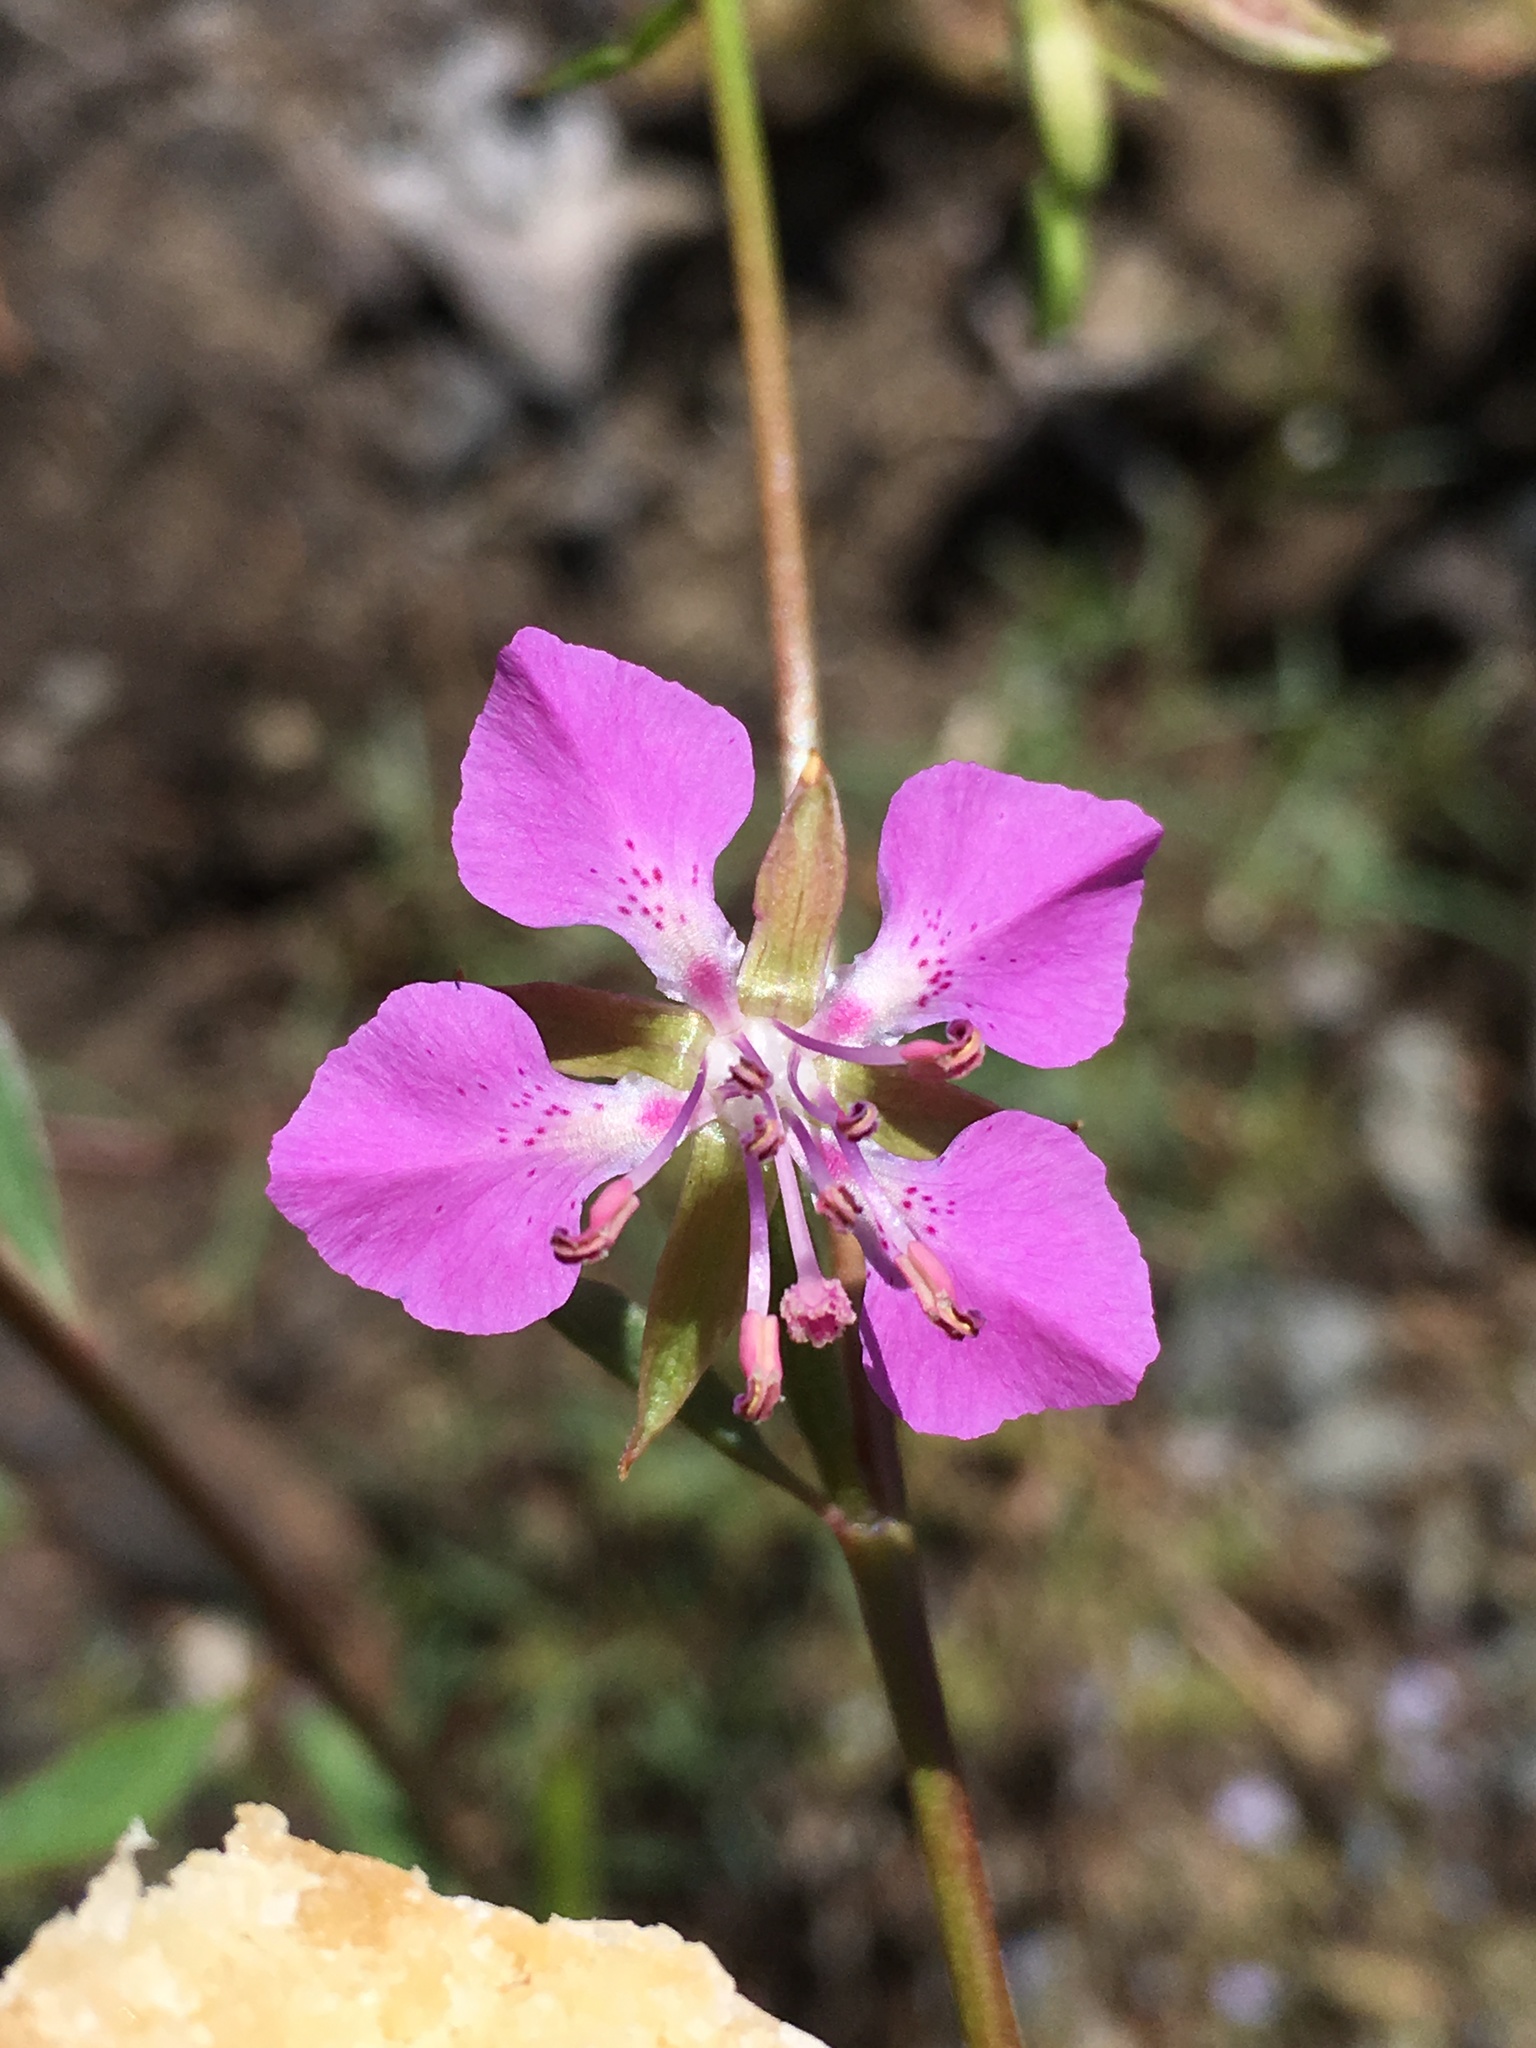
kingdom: Plantae
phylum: Tracheophyta
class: Magnoliopsida
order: Myrtales
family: Onagraceae
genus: Clarkia
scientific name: Clarkia rhomboidea
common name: Broadleaf clarkia
